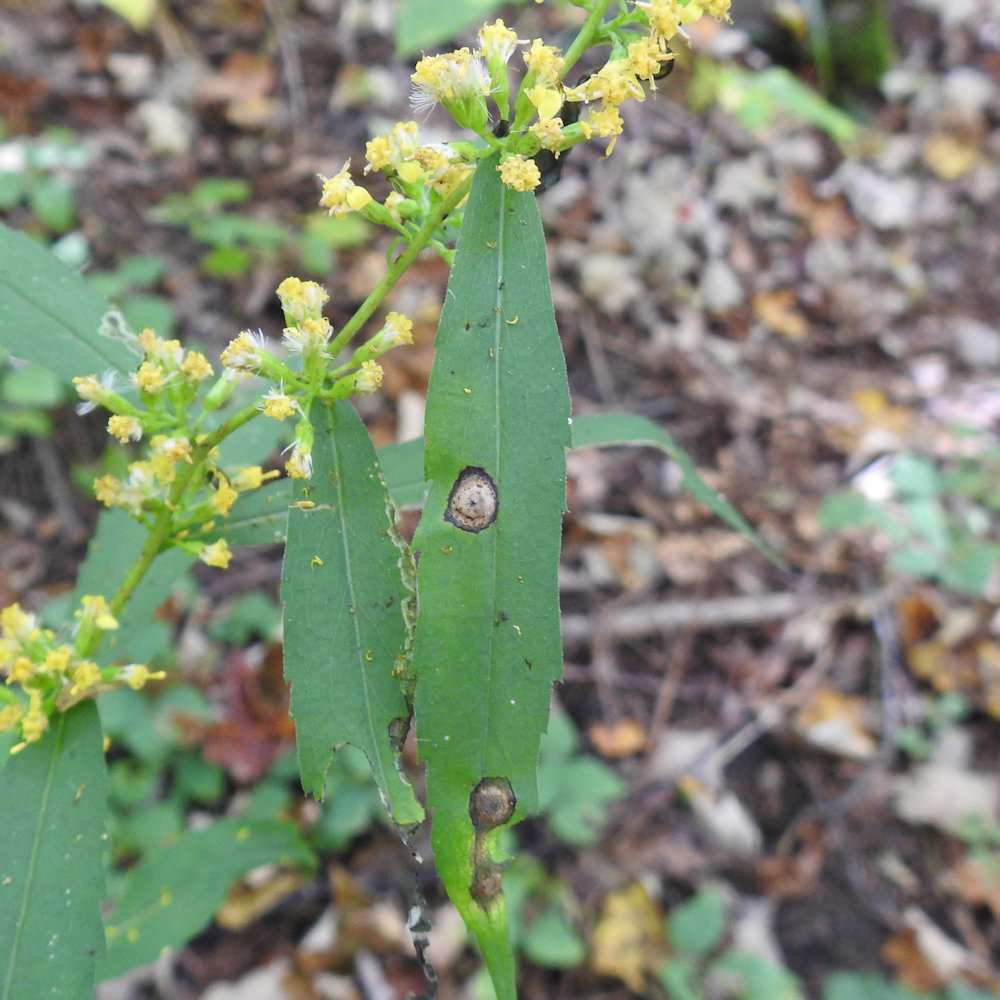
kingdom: Animalia
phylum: Arthropoda
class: Insecta
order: Diptera
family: Cecidomyiidae
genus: Asteromyia
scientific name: Asteromyia carbonifera
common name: Carbonifera goldenrod gall midge
